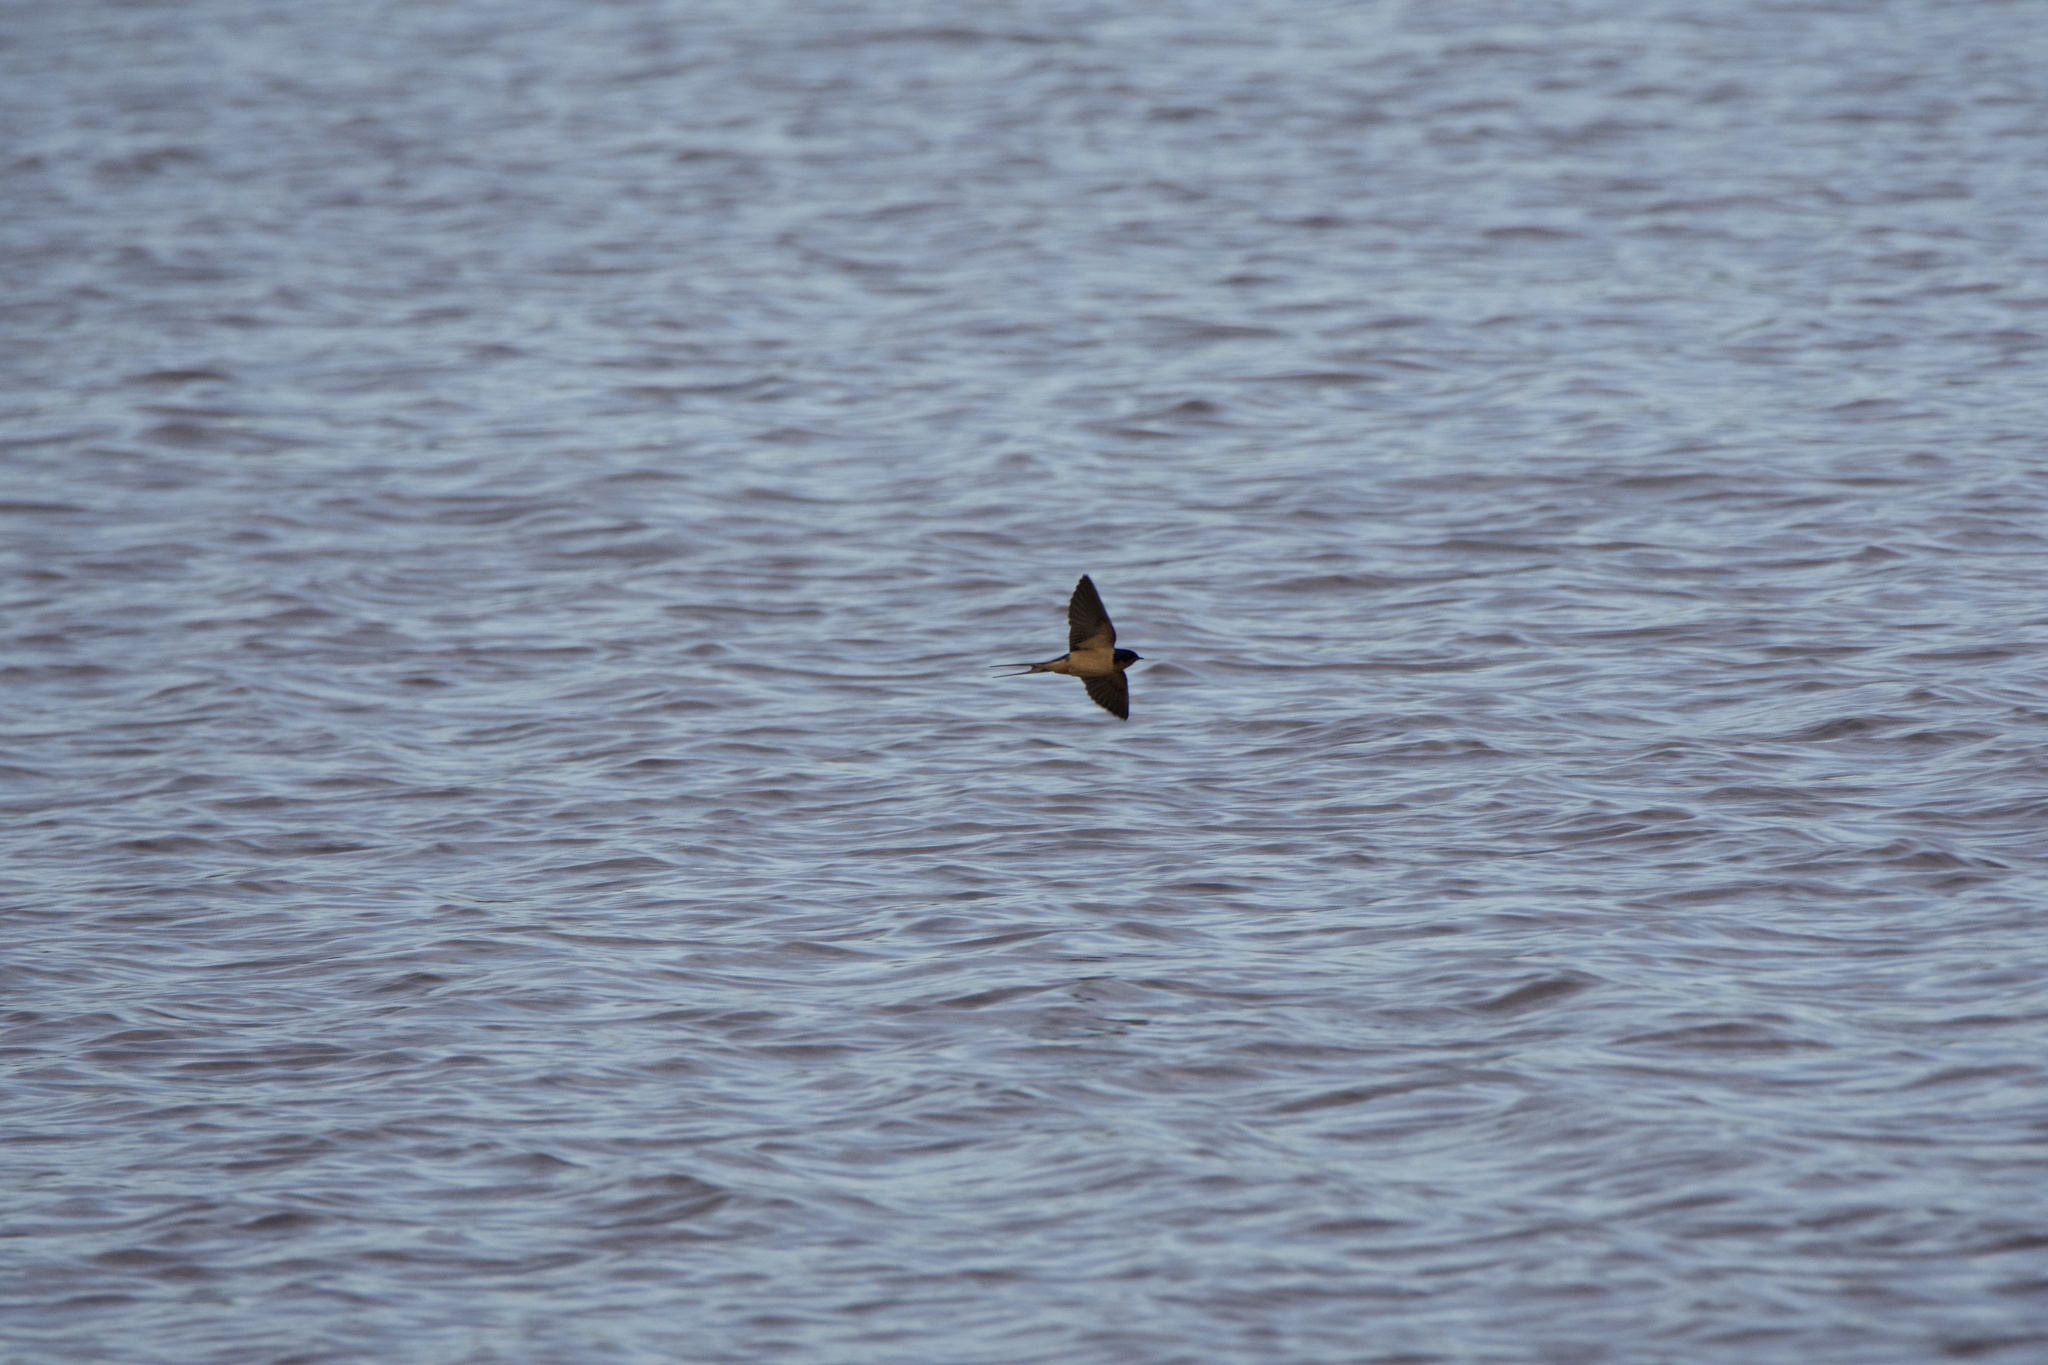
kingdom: Animalia
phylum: Chordata
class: Aves
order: Passeriformes
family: Hirundinidae
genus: Hirundo
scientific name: Hirundo rustica
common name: Barn swallow
